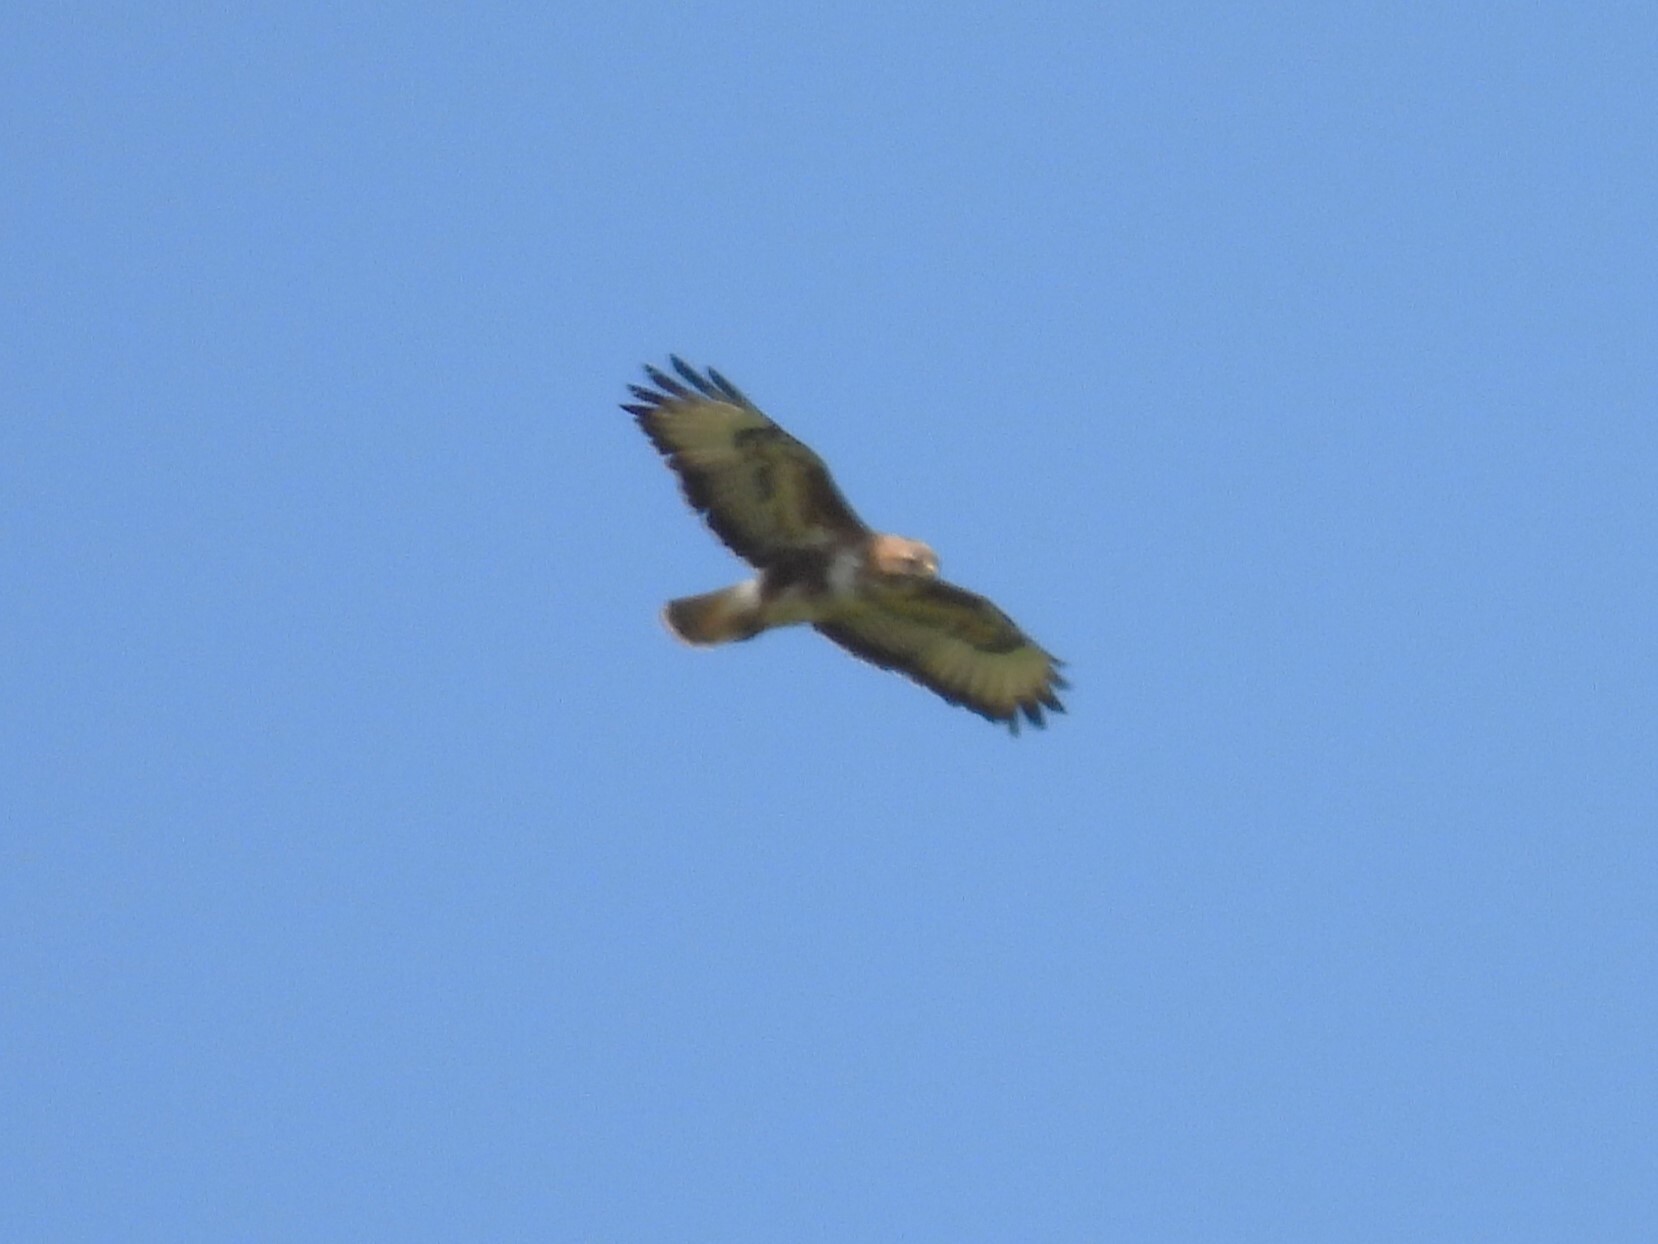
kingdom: Animalia
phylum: Chordata
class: Aves
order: Accipitriformes
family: Accipitridae
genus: Buteo
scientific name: Buteo buteo
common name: Common buzzard
